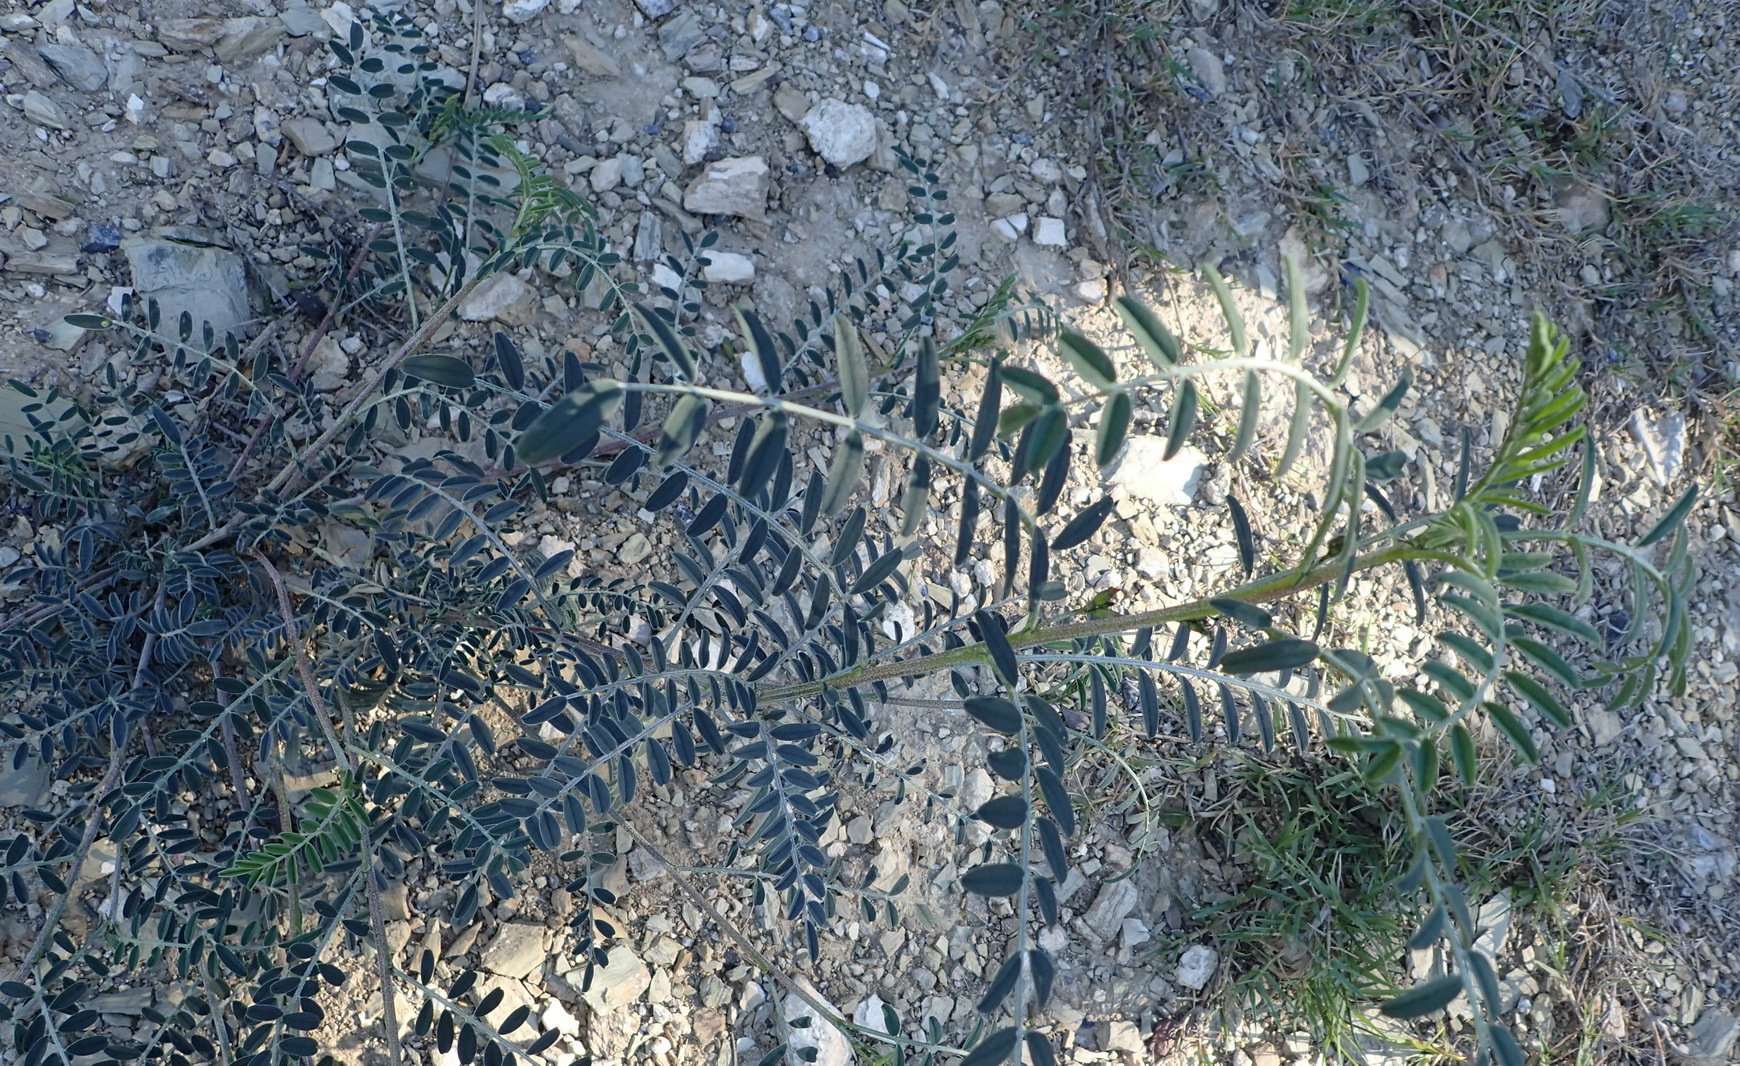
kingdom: Plantae
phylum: Tracheophyta
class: Magnoliopsida
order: Fabales
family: Fabaceae
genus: Lessertia
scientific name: Lessertia frutescens
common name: Balloon-pea
